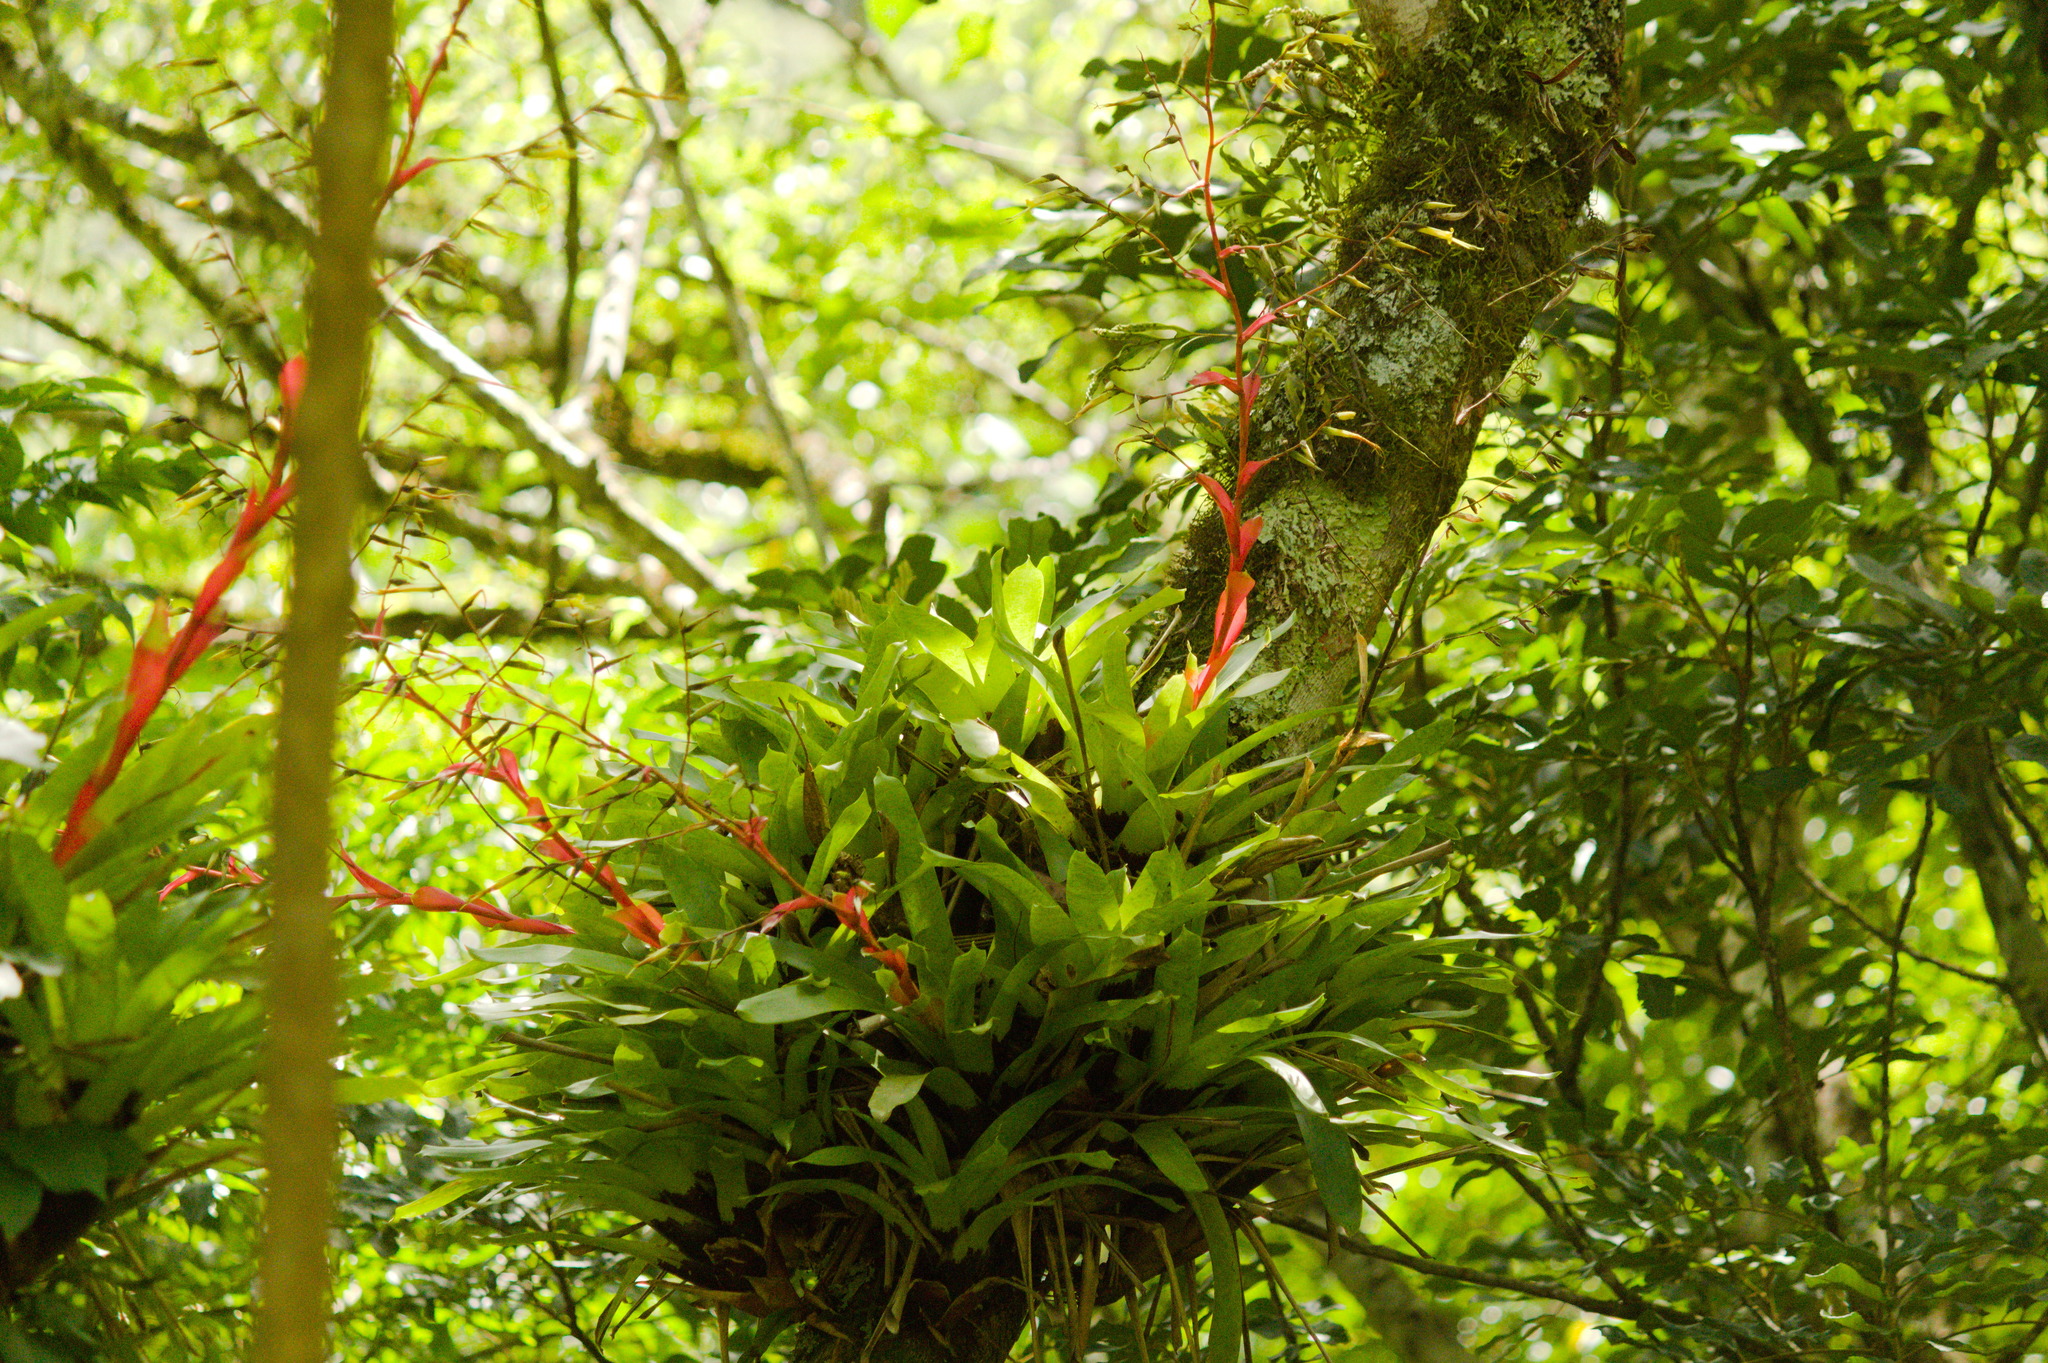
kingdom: Plantae
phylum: Tracheophyta
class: Liliopsida
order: Poales
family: Bromeliaceae
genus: Vriesea
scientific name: Vriesea vagans
